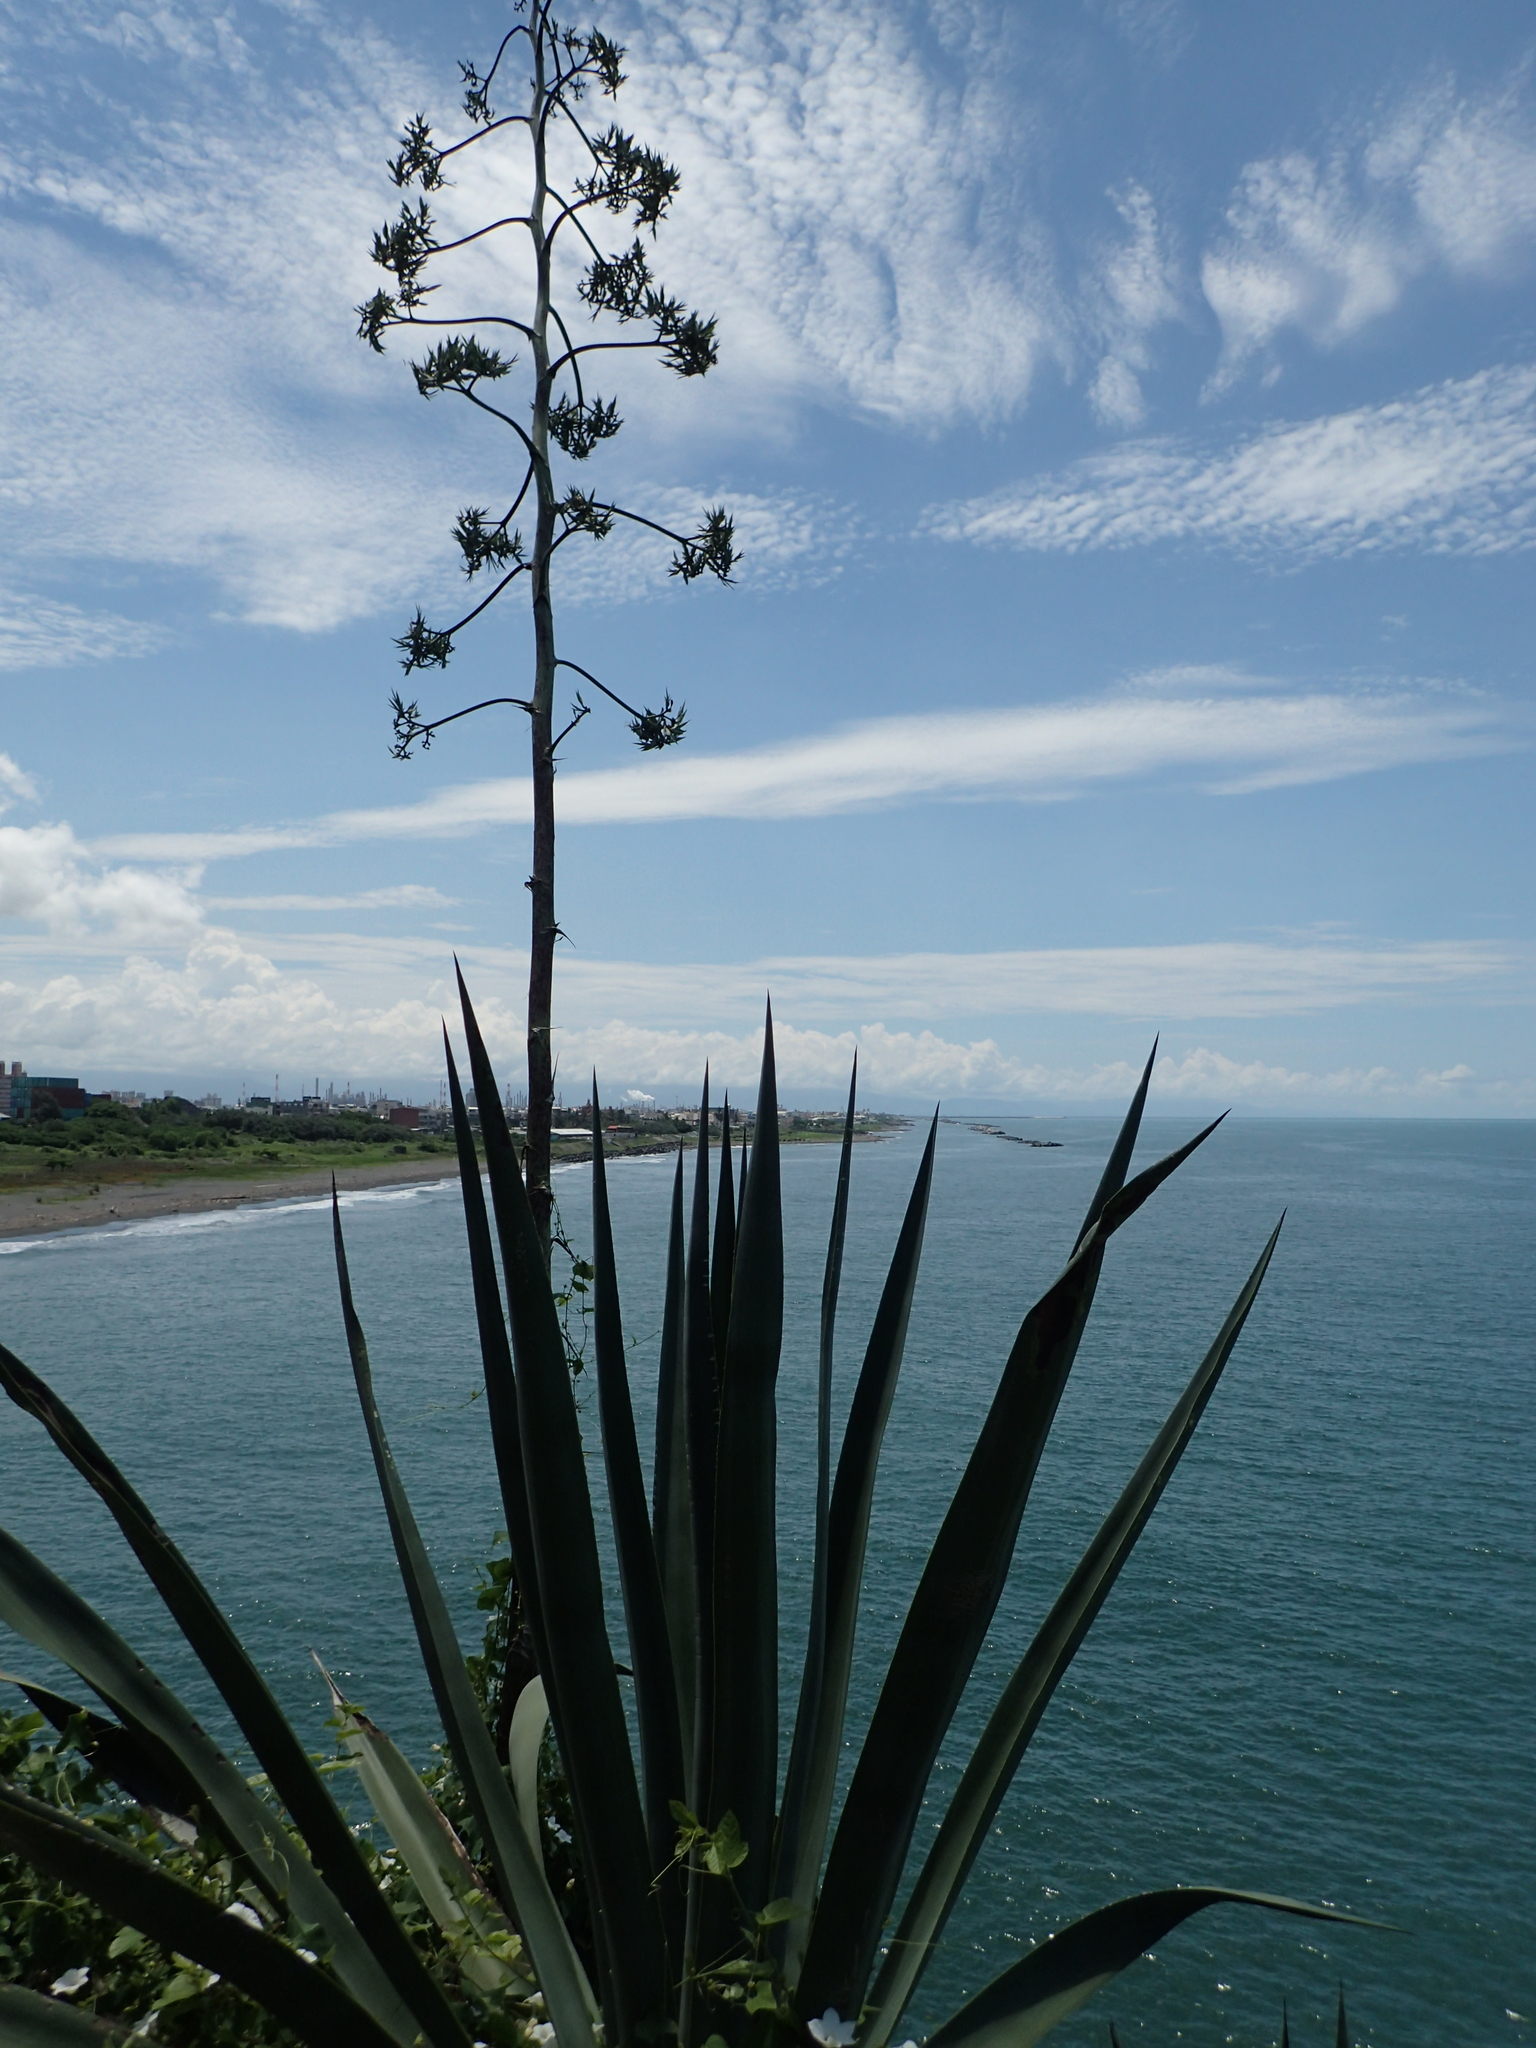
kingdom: Plantae
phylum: Tracheophyta
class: Liliopsida
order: Asparagales
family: Asparagaceae
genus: Agave
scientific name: Agave sisalana
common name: Sisal hemp
